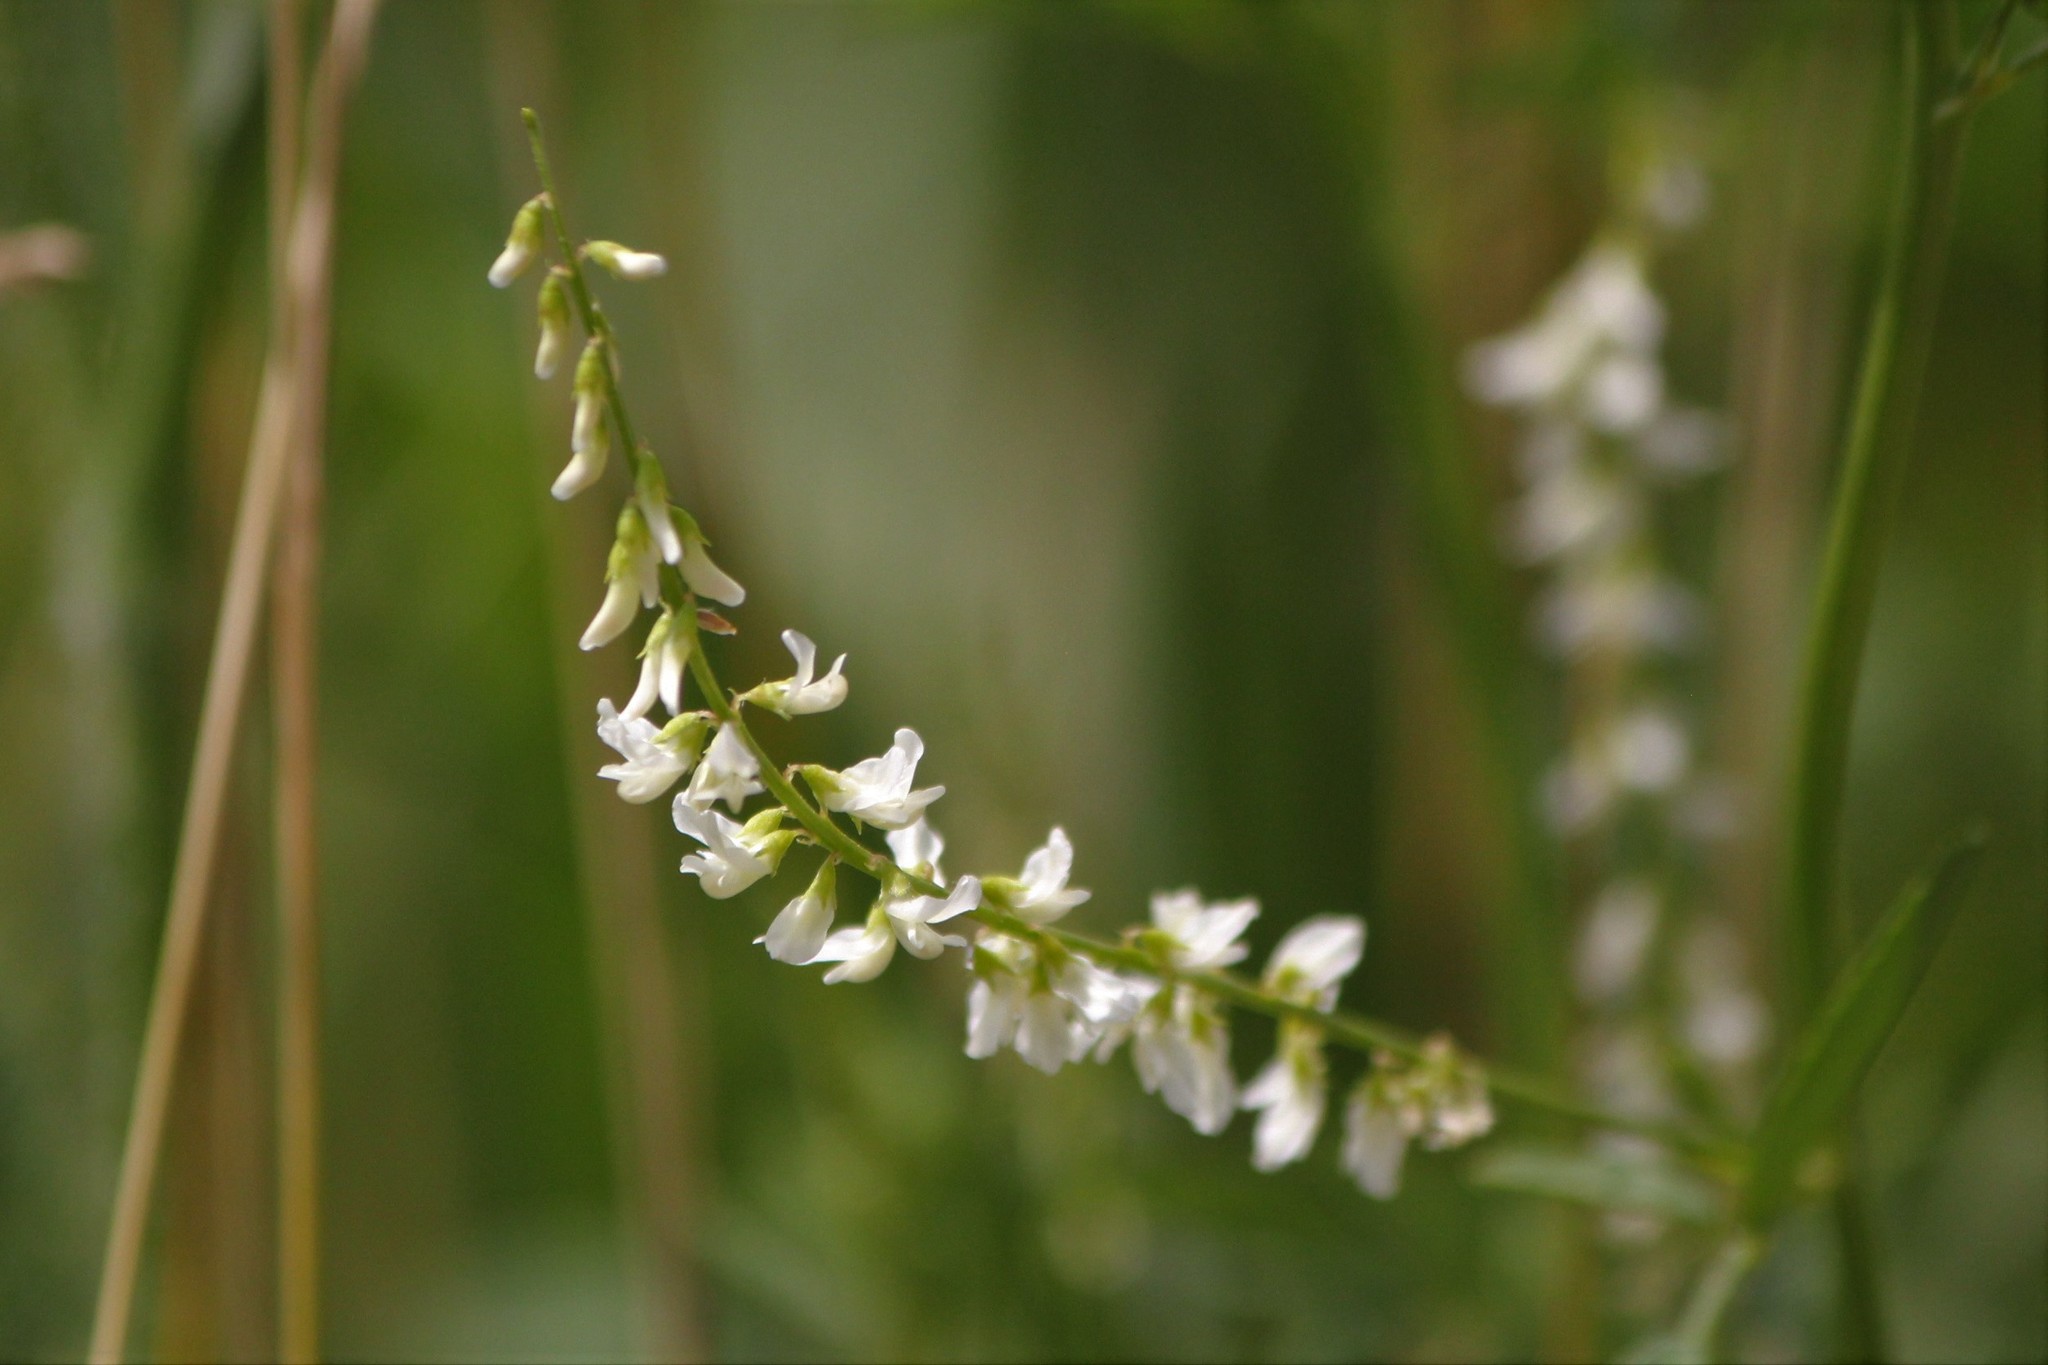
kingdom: Plantae
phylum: Tracheophyta
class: Magnoliopsida
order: Fabales
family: Fabaceae
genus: Melilotus
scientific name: Melilotus albus
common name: White melilot
